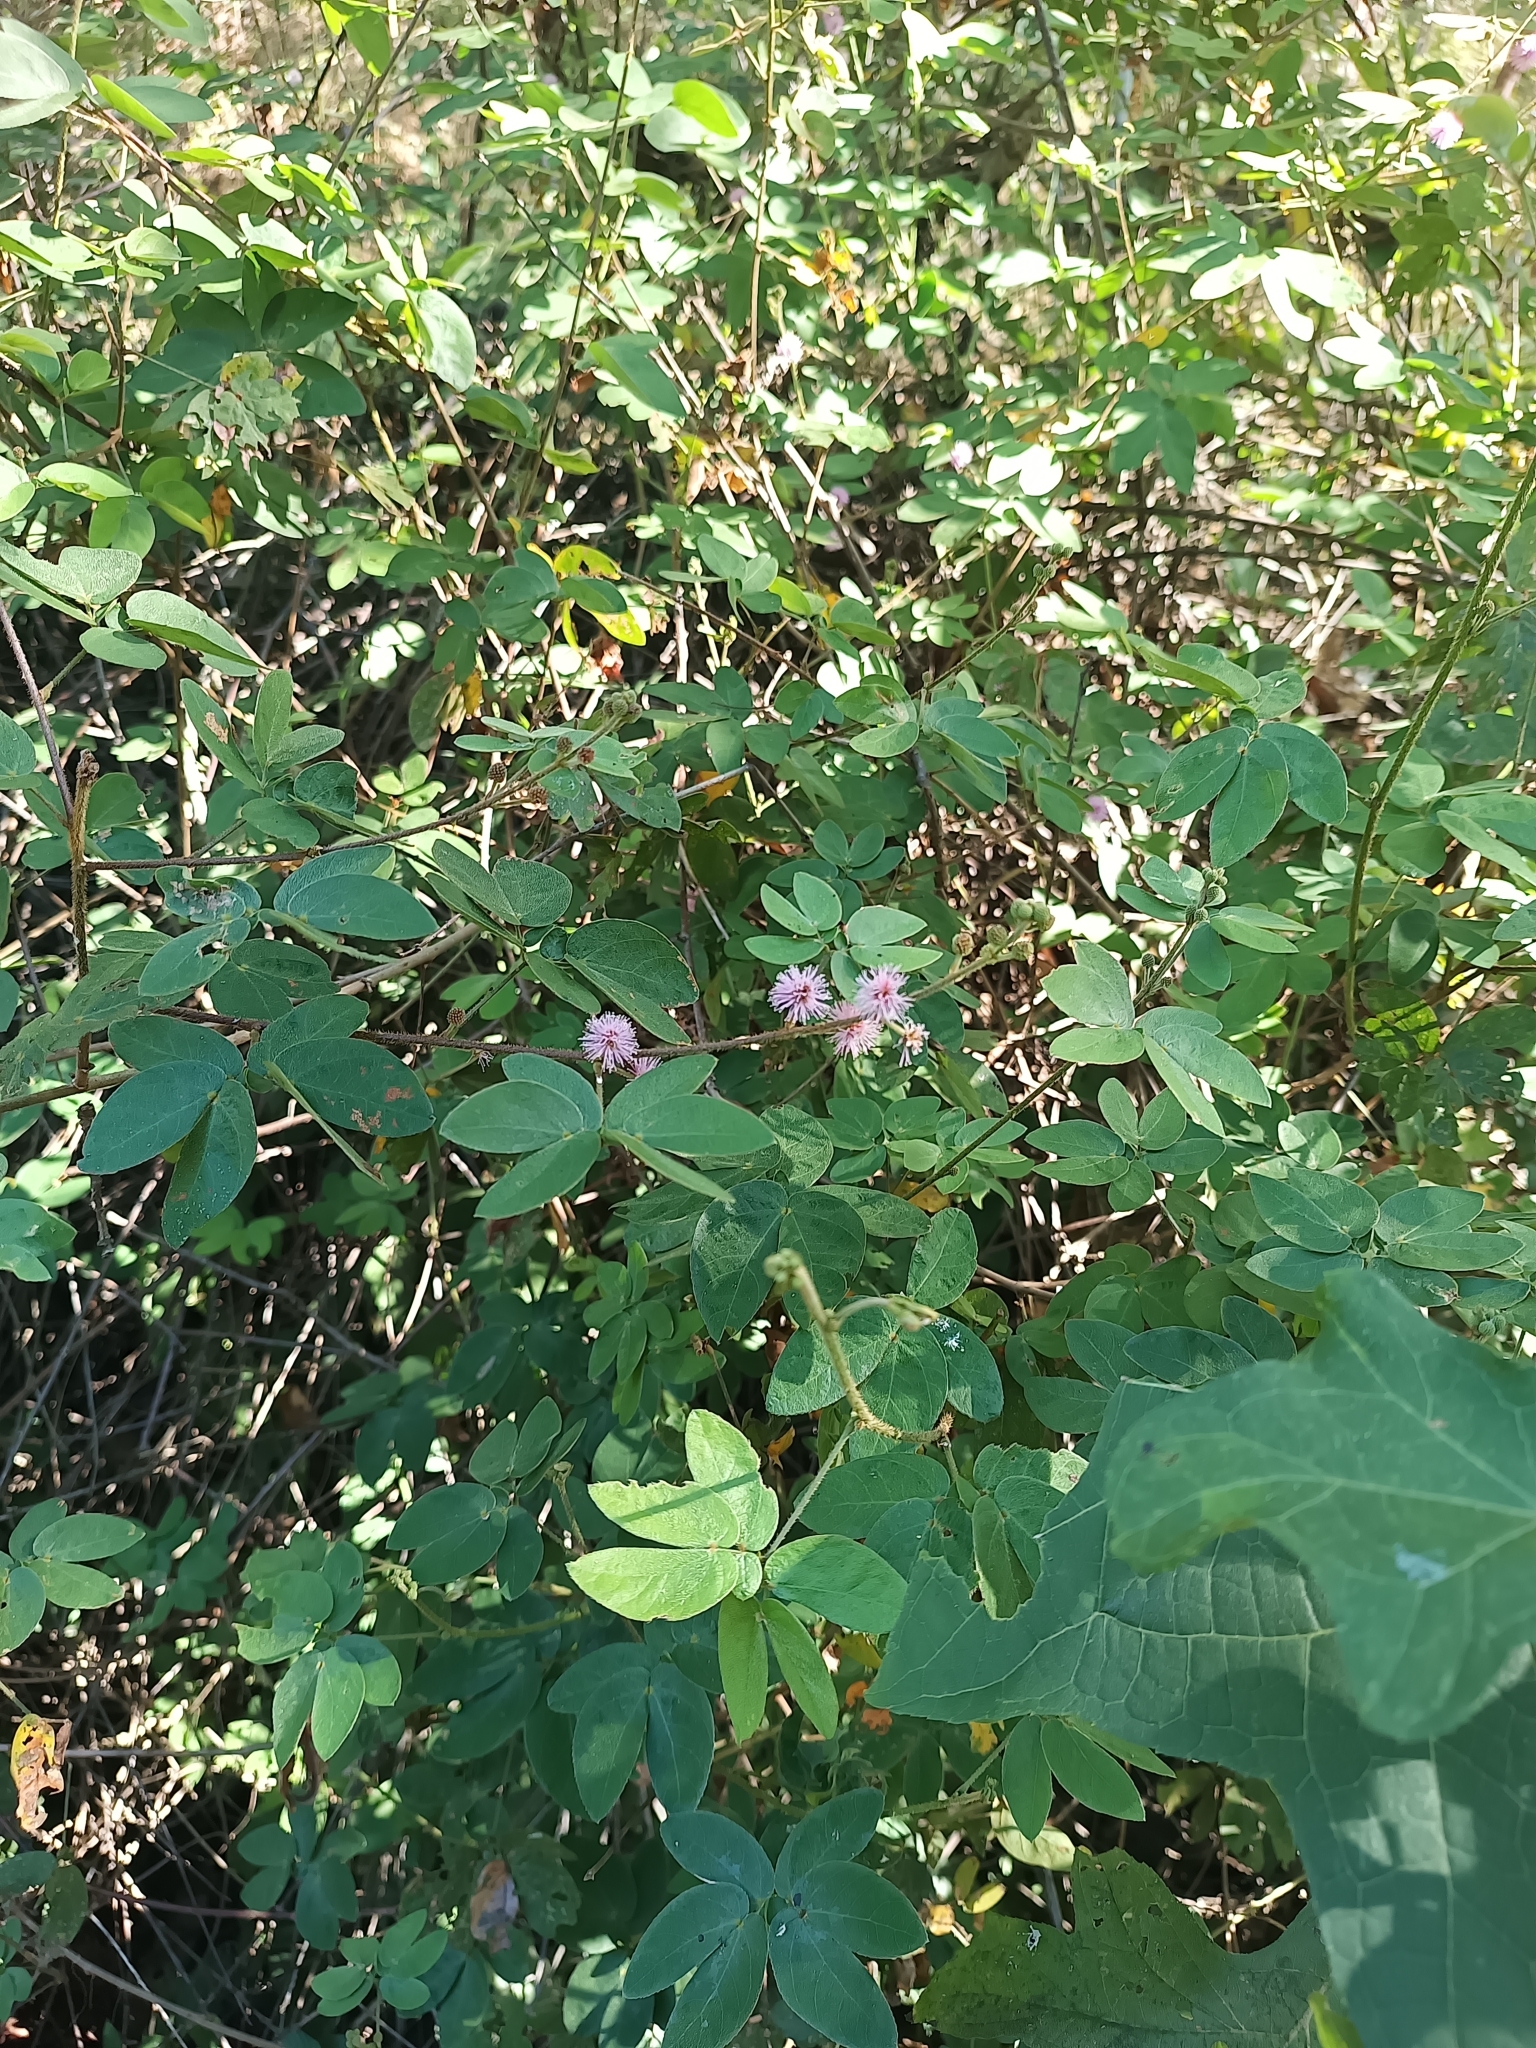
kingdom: Plantae
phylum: Tracheophyta
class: Magnoliopsida
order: Fabales
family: Fabaceae
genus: Mimosa
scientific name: Mimosa albida
